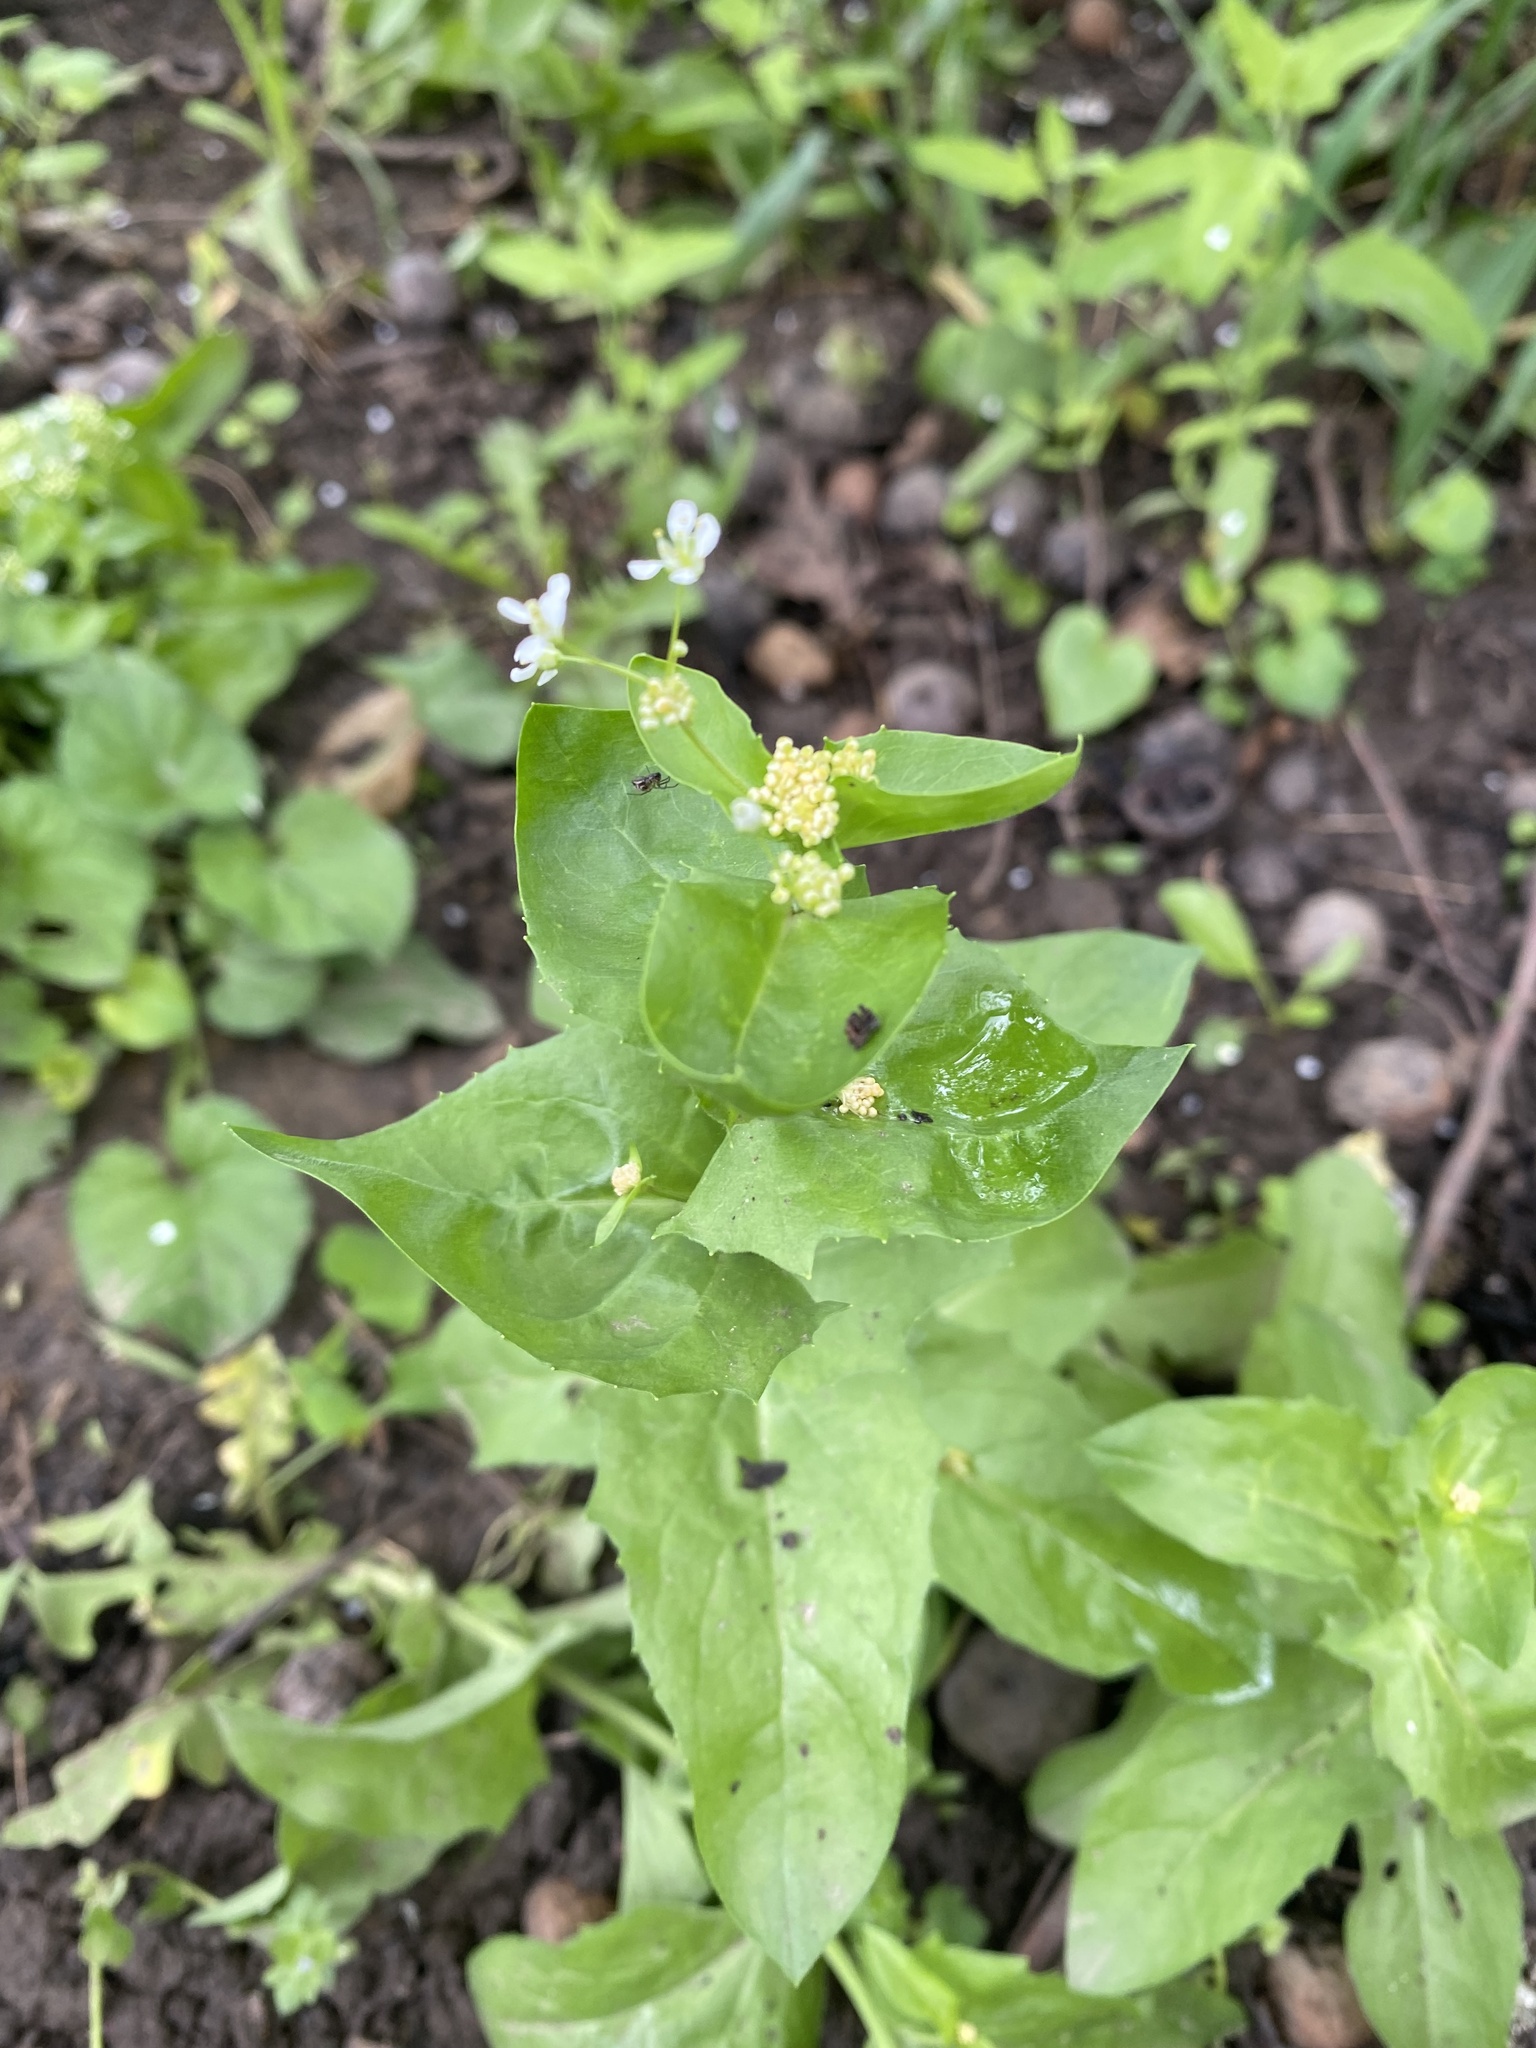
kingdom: Plantae
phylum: Tracheophyta
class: Magnoliopsida
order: Brassicales
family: Brassicaceae
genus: Lepidium
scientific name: Lepidium draba
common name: Hoary cress
